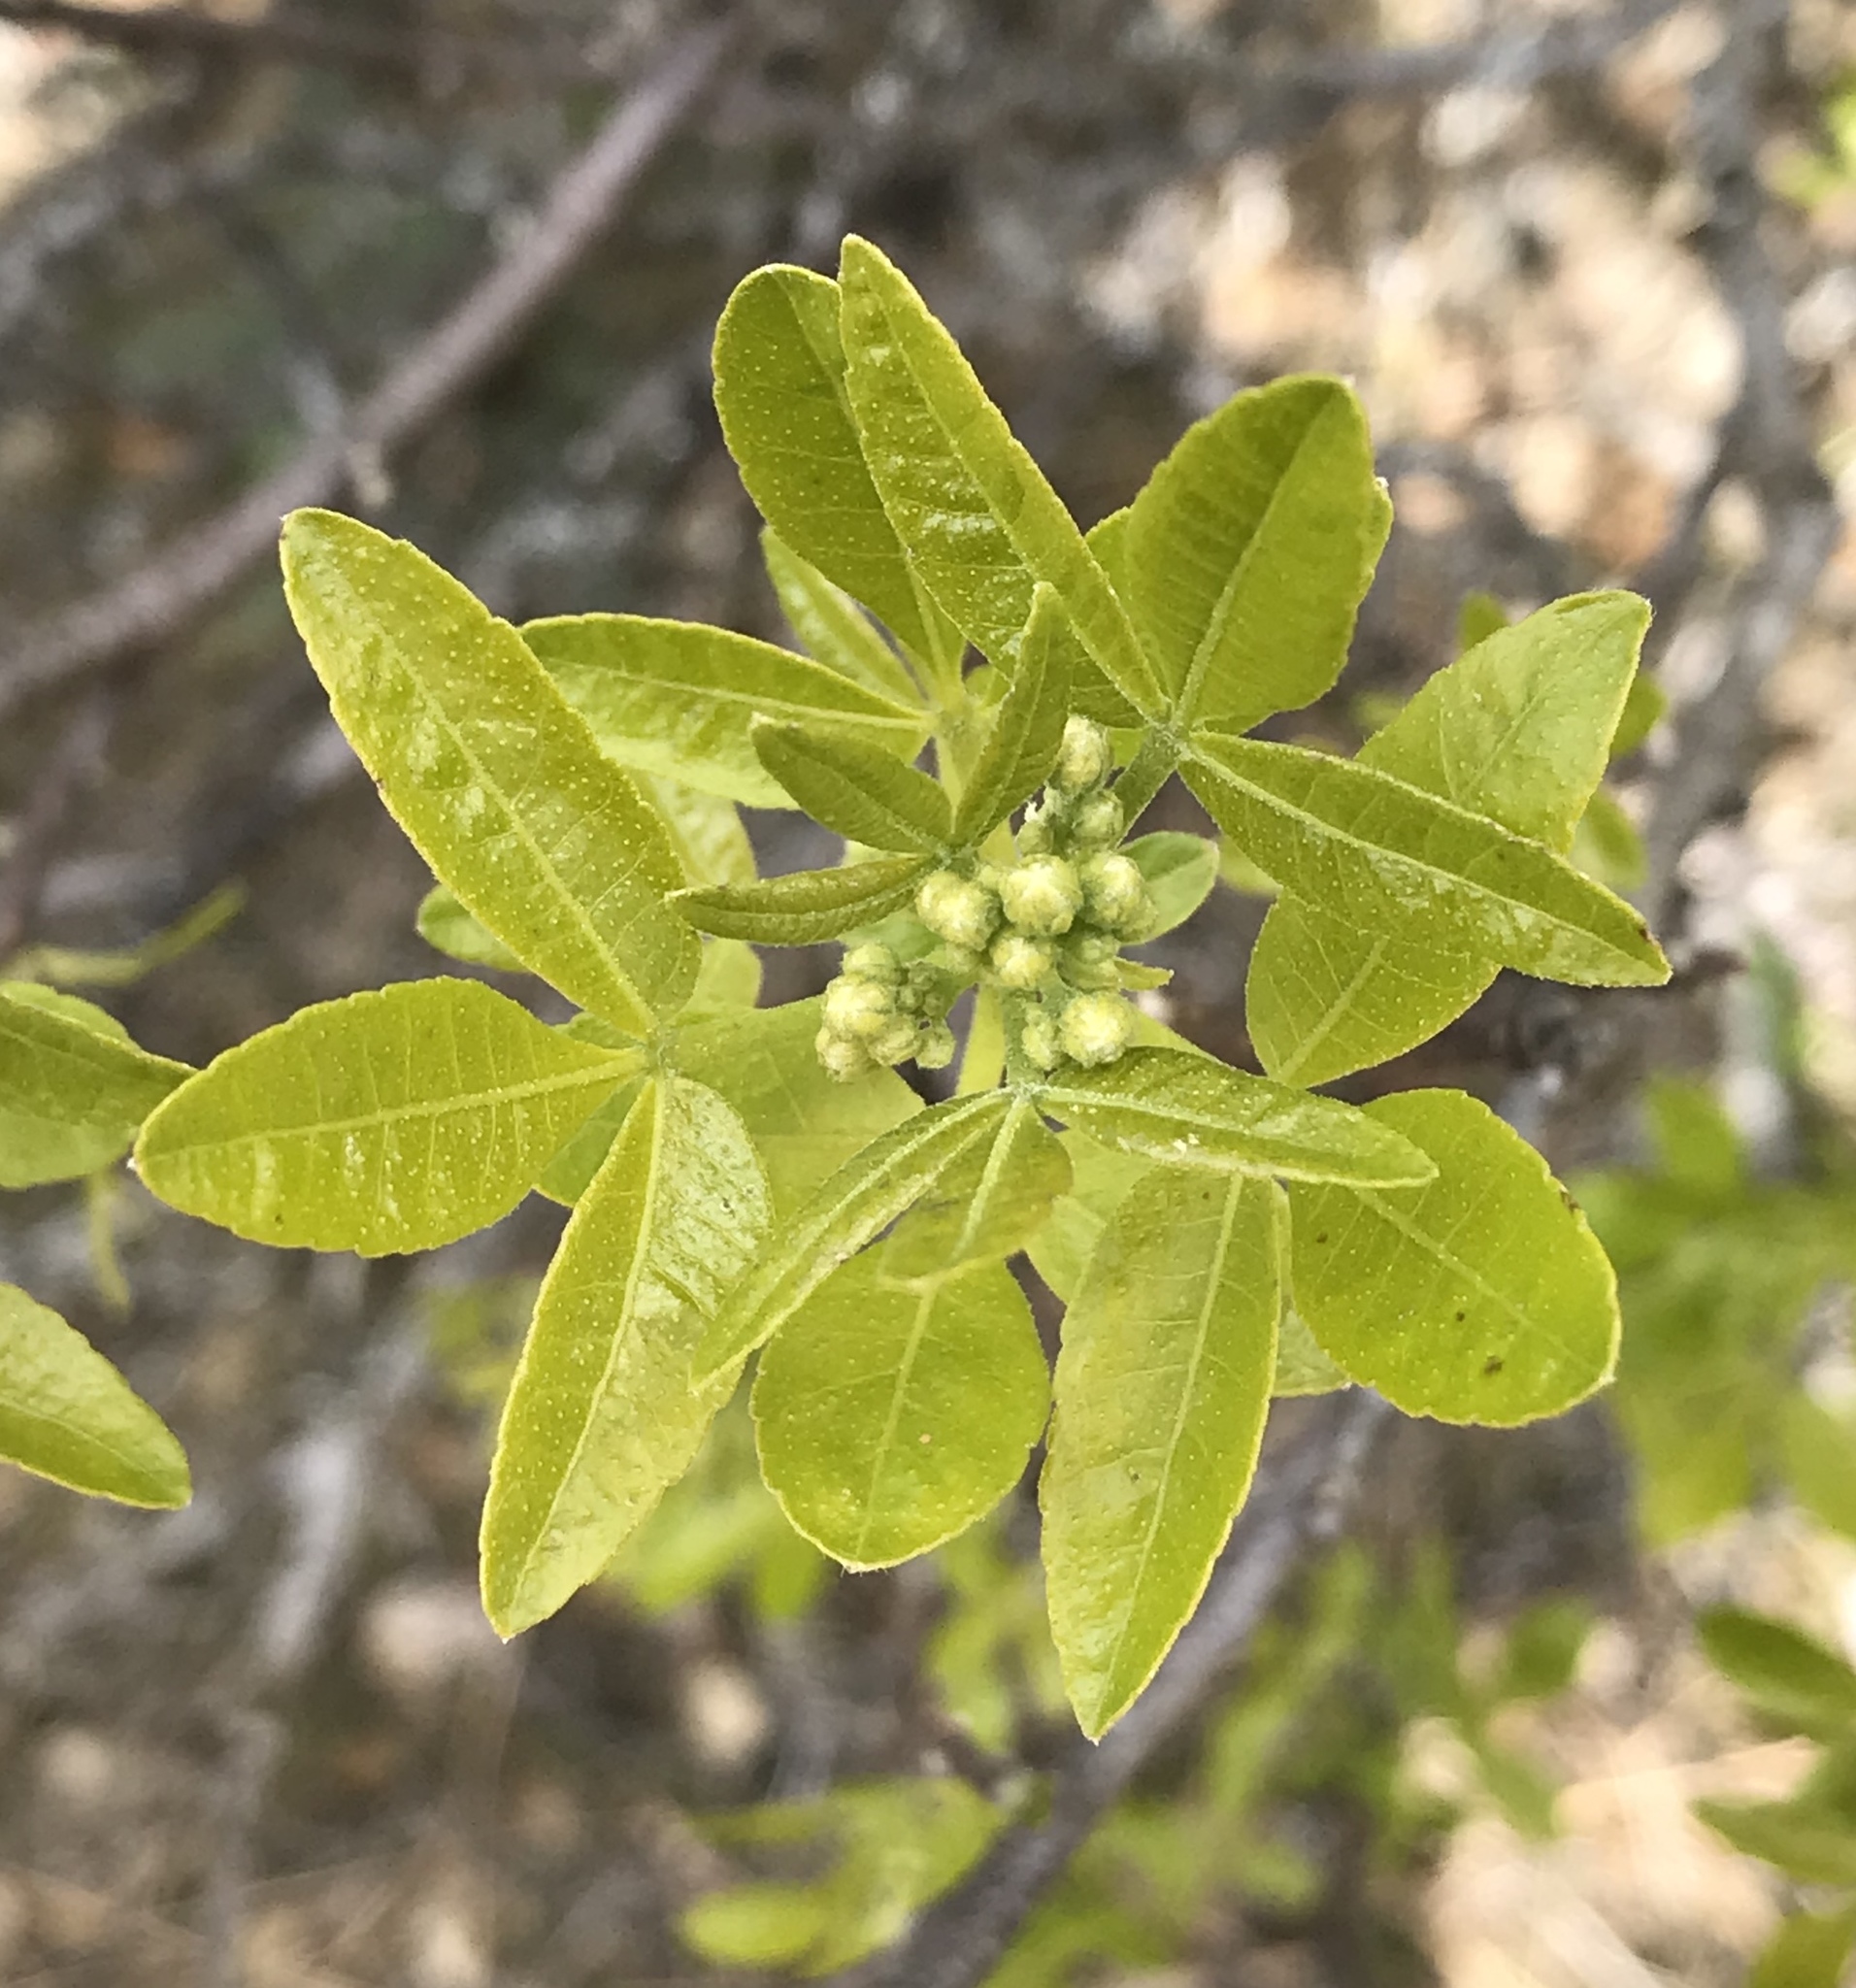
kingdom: Plantae
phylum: Tracheophyta
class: Magnoliopsida
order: Sapindales
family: Rutaceae
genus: Ptelea
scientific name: Ptelea crenulata
